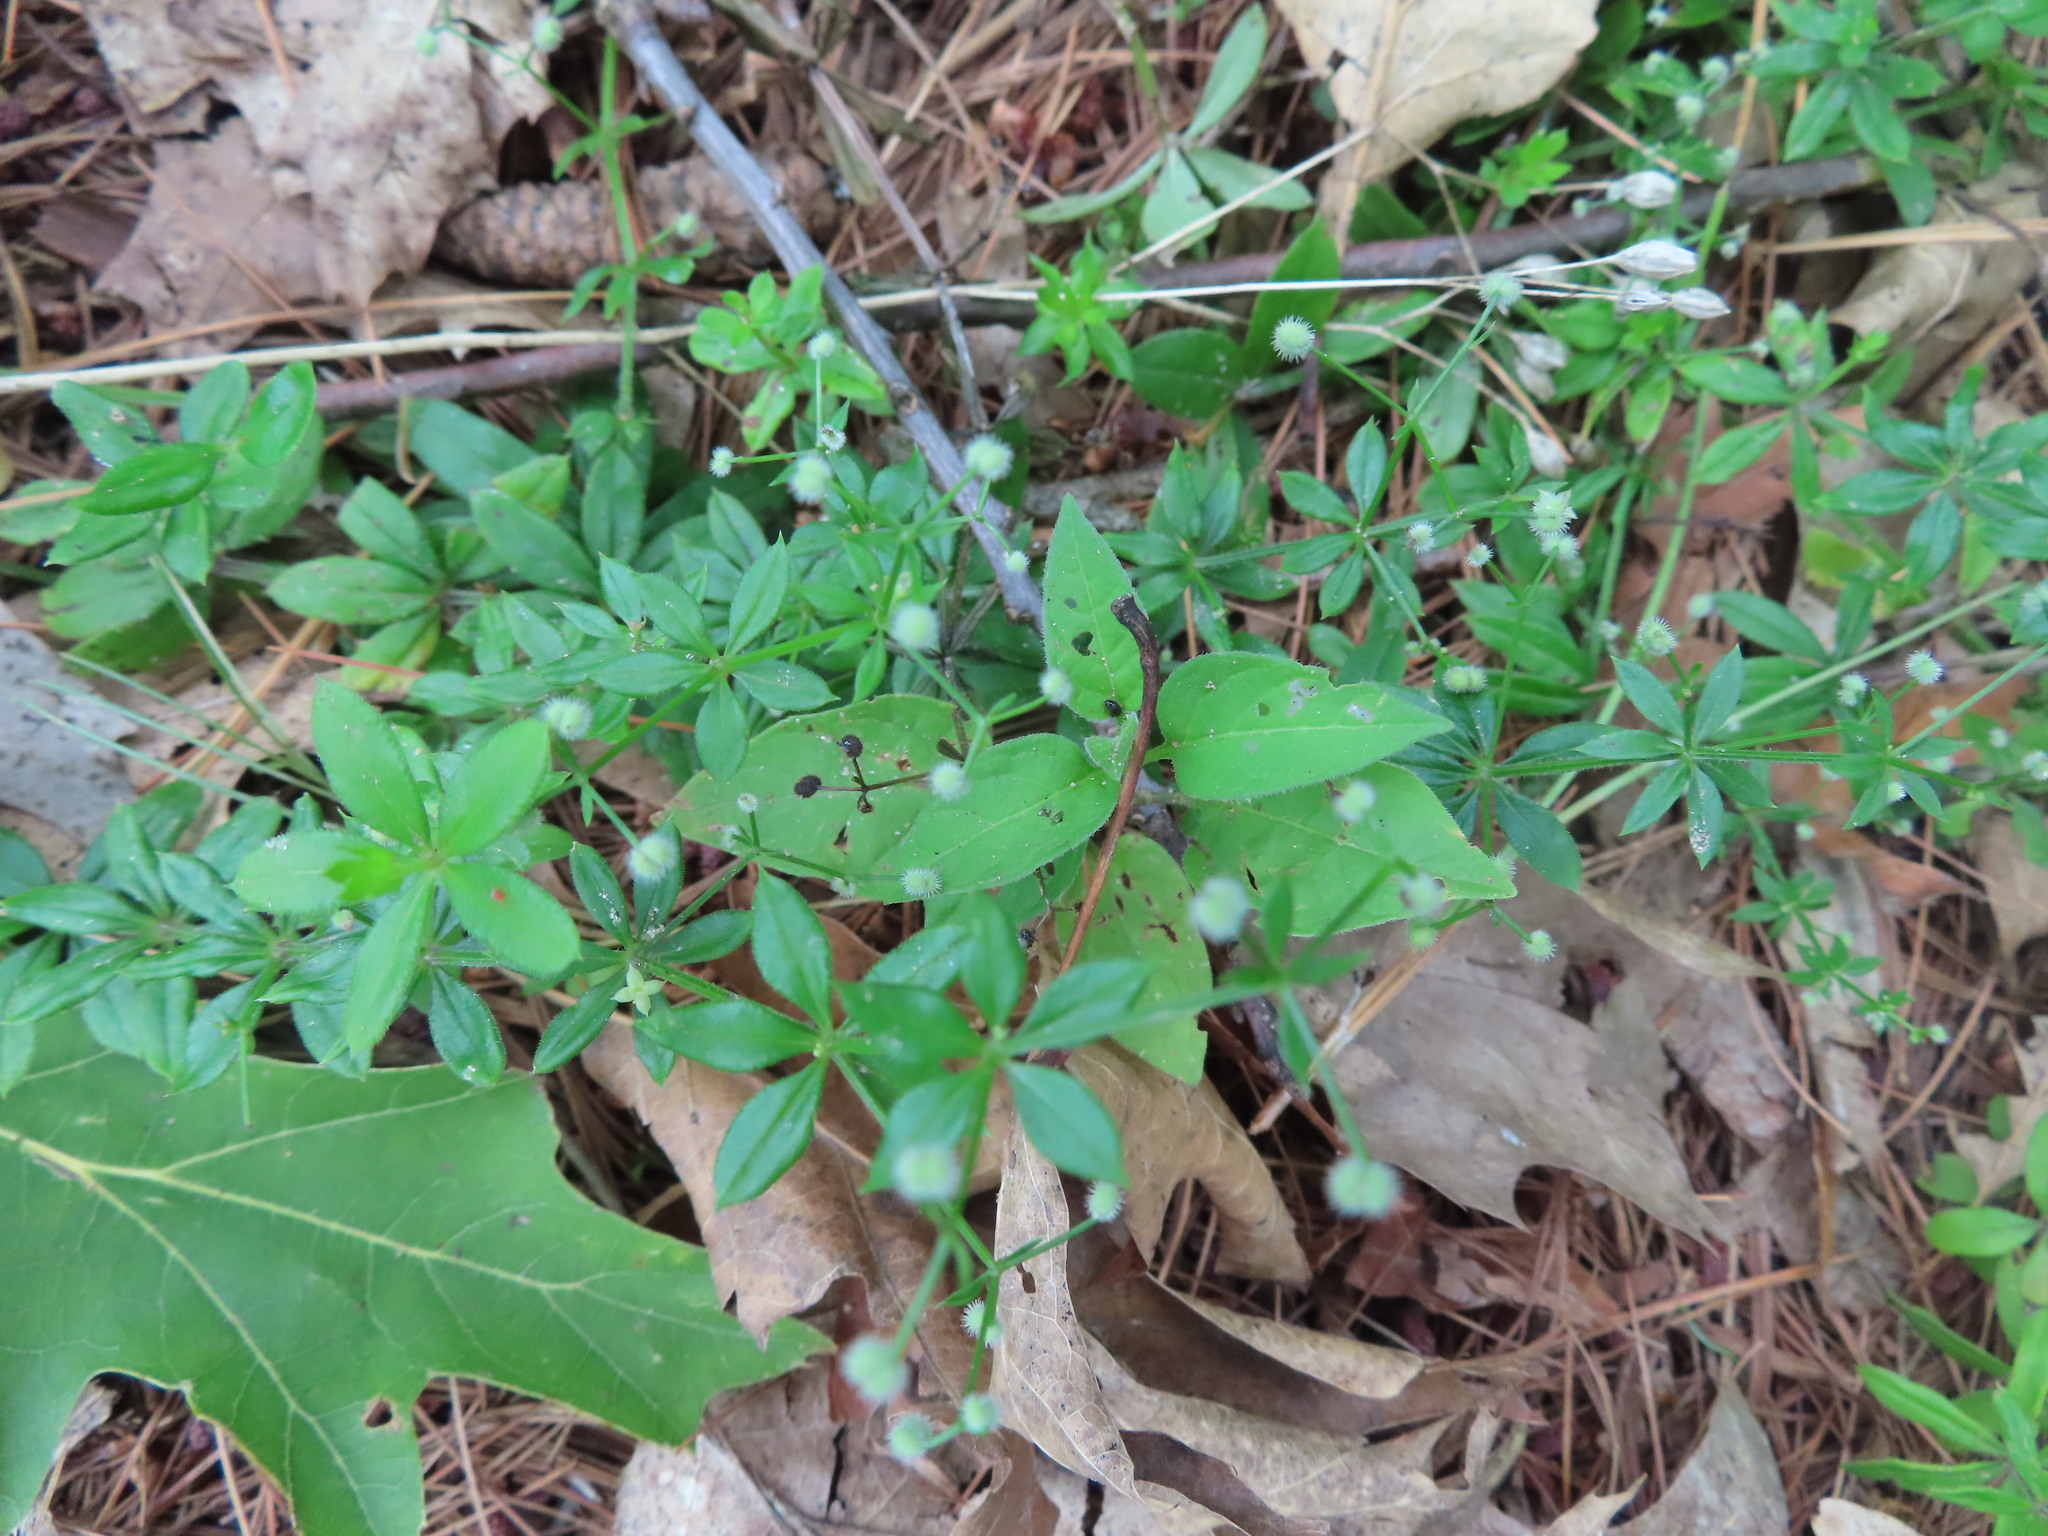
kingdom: Plantae
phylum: Tracheophyta
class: Magnoliopsida
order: Gentianales
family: Rubiaceae
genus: Galium
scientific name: Galium triflorum
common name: Fragrant bedstraw
